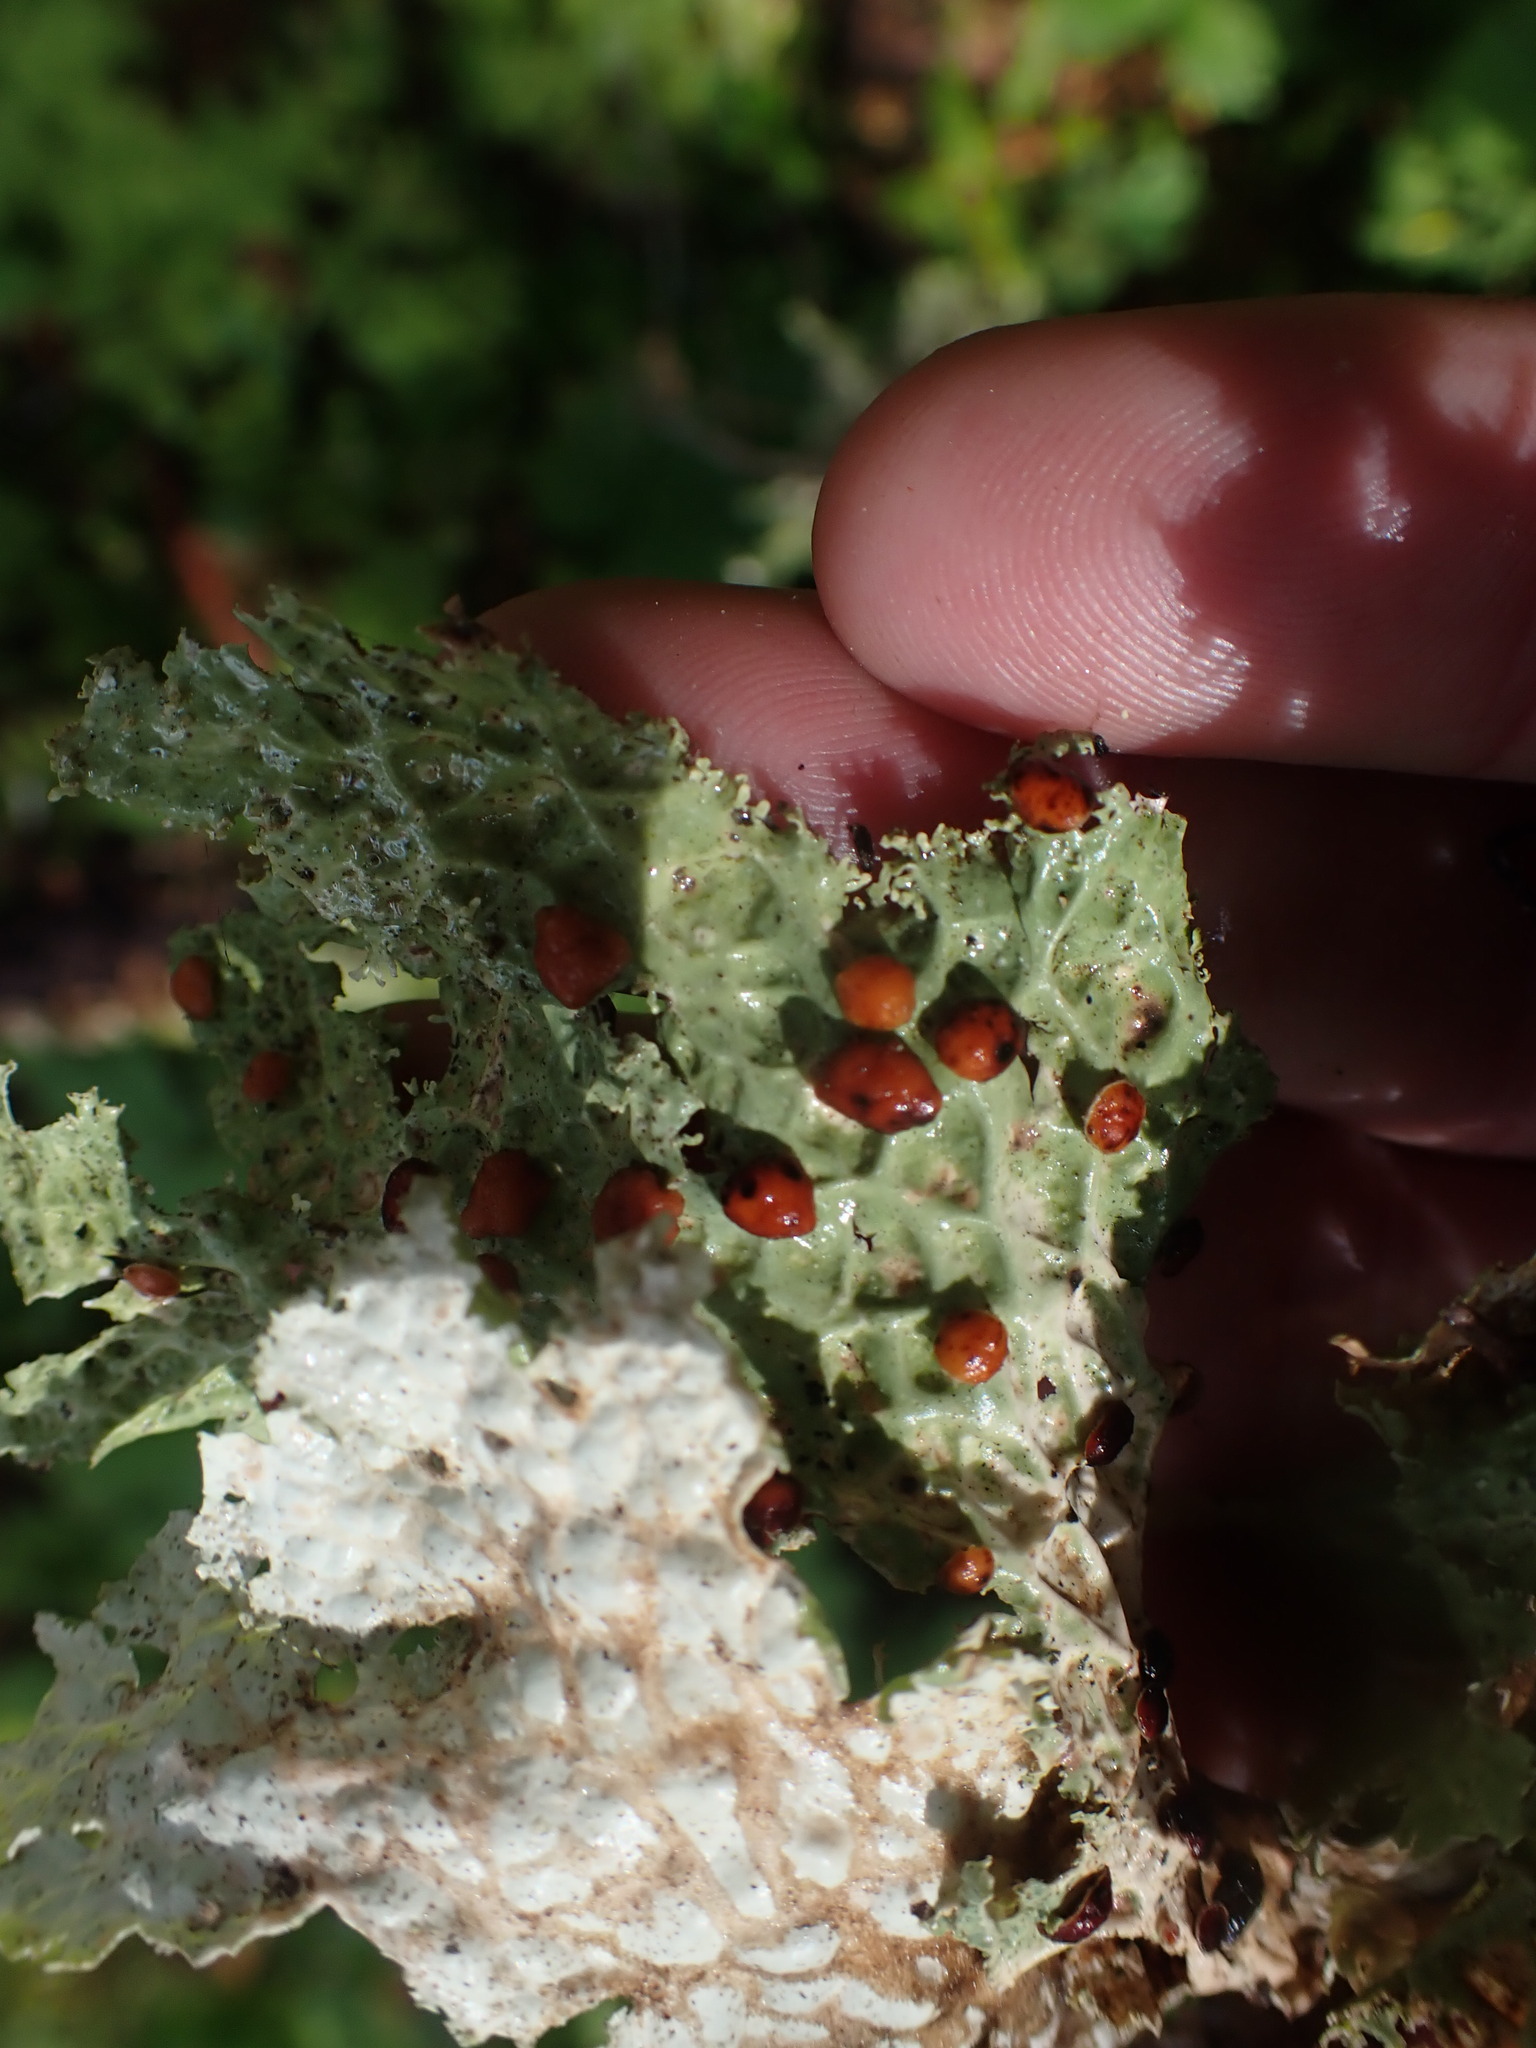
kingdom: Fungi
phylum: Ascomycota
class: Lecanoromycetes
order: Peltigerales
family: Lobariaceae
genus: Lobaria
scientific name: Lobaria oregana
